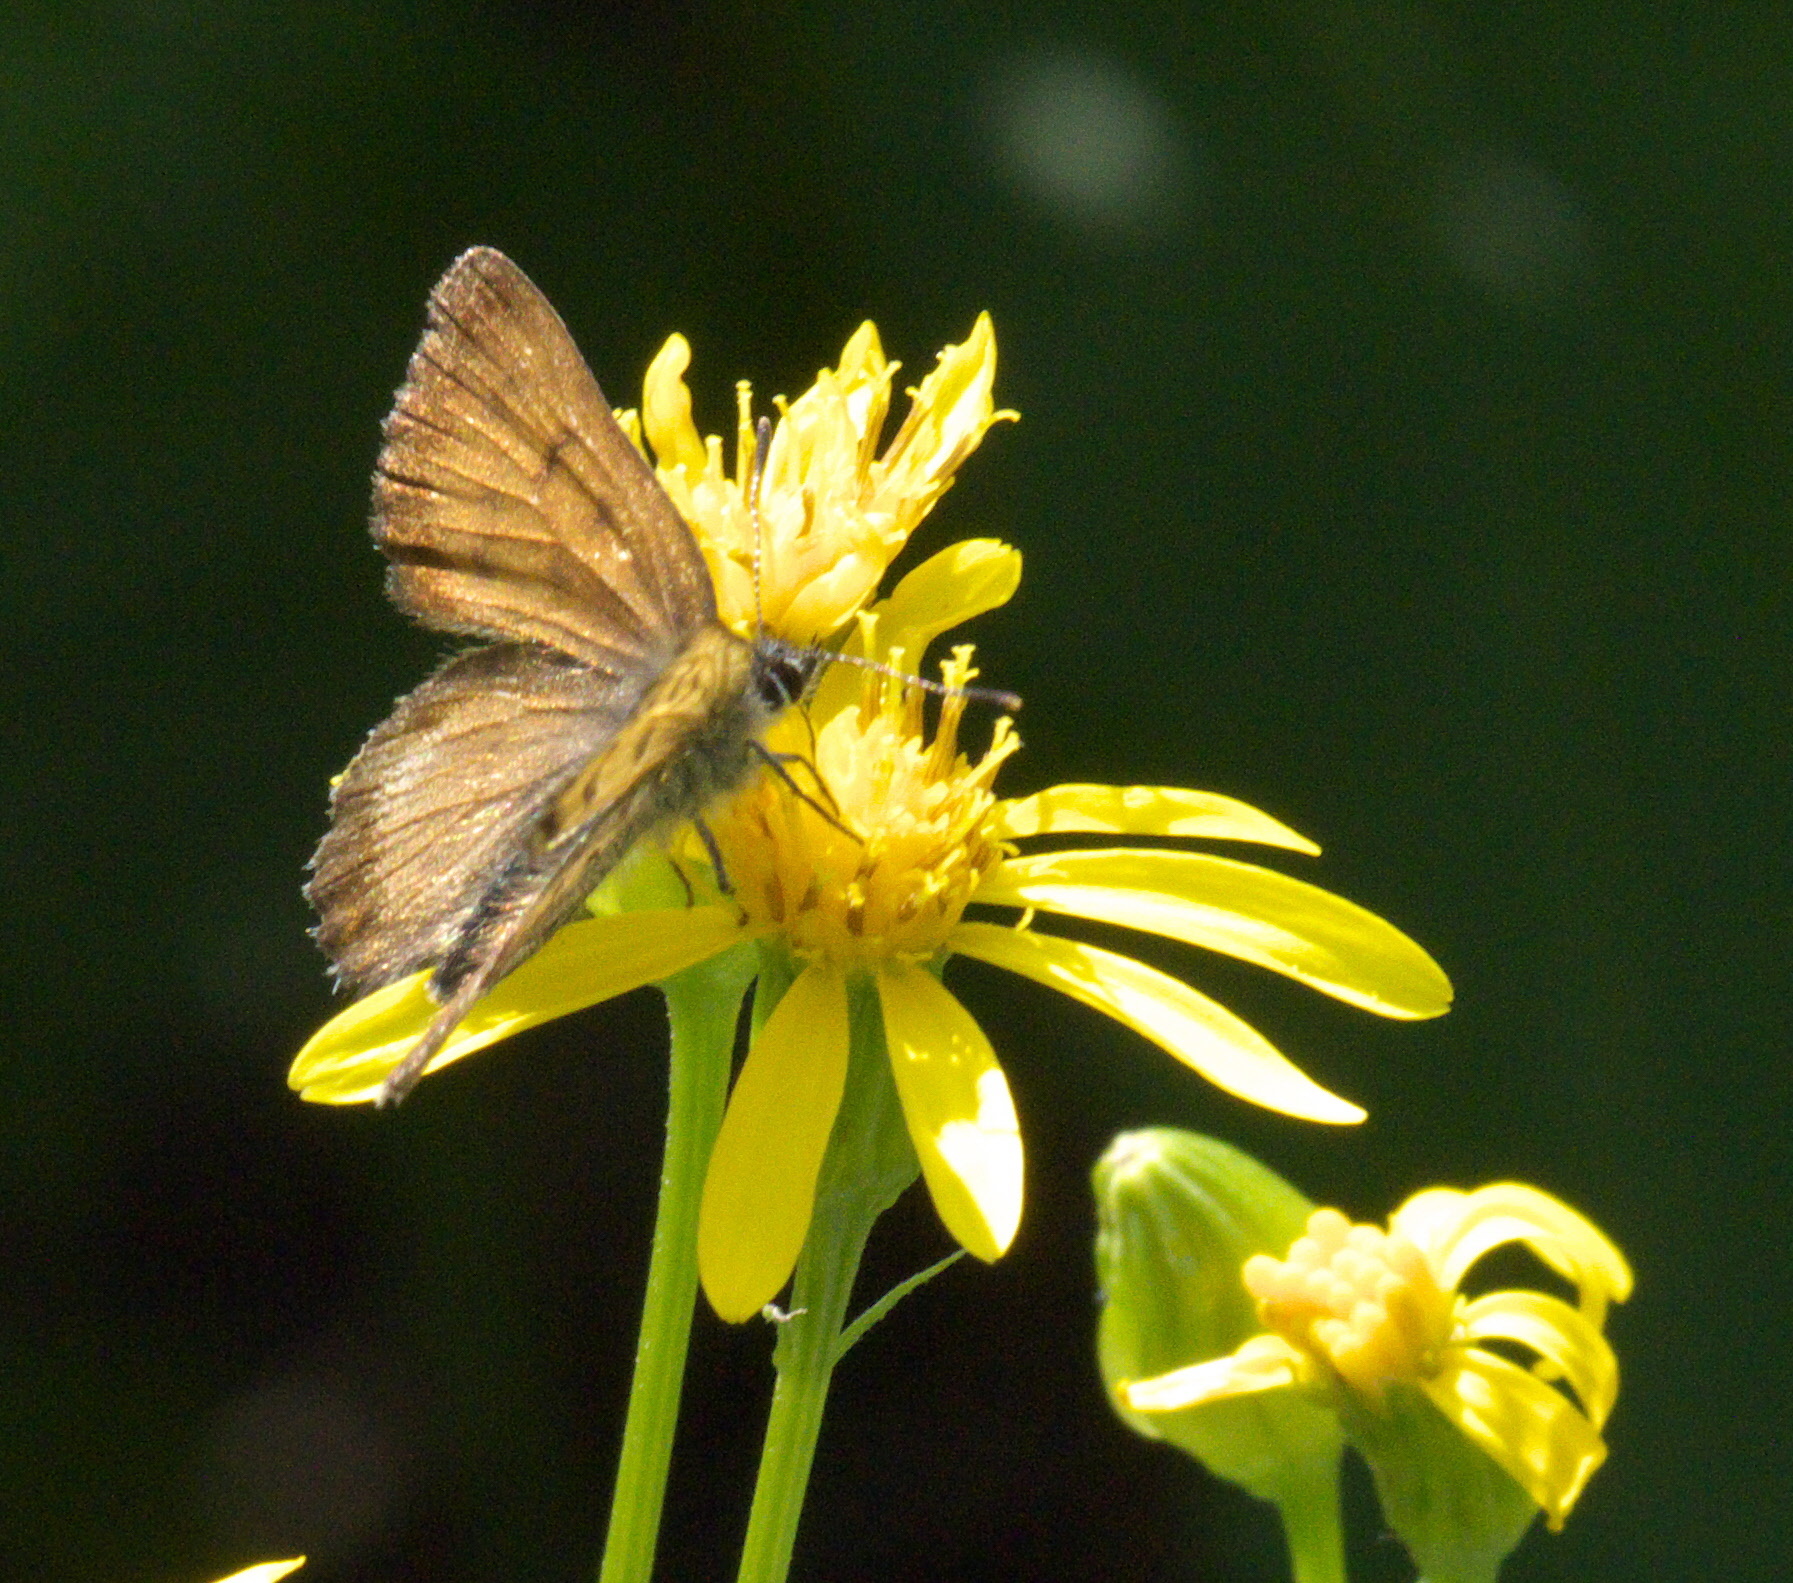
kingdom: Animalia
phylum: Arthropoda
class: Insecta
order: Lepidoptera
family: Lycaenidae
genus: Tharsalea
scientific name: Tharsalea mariposa
